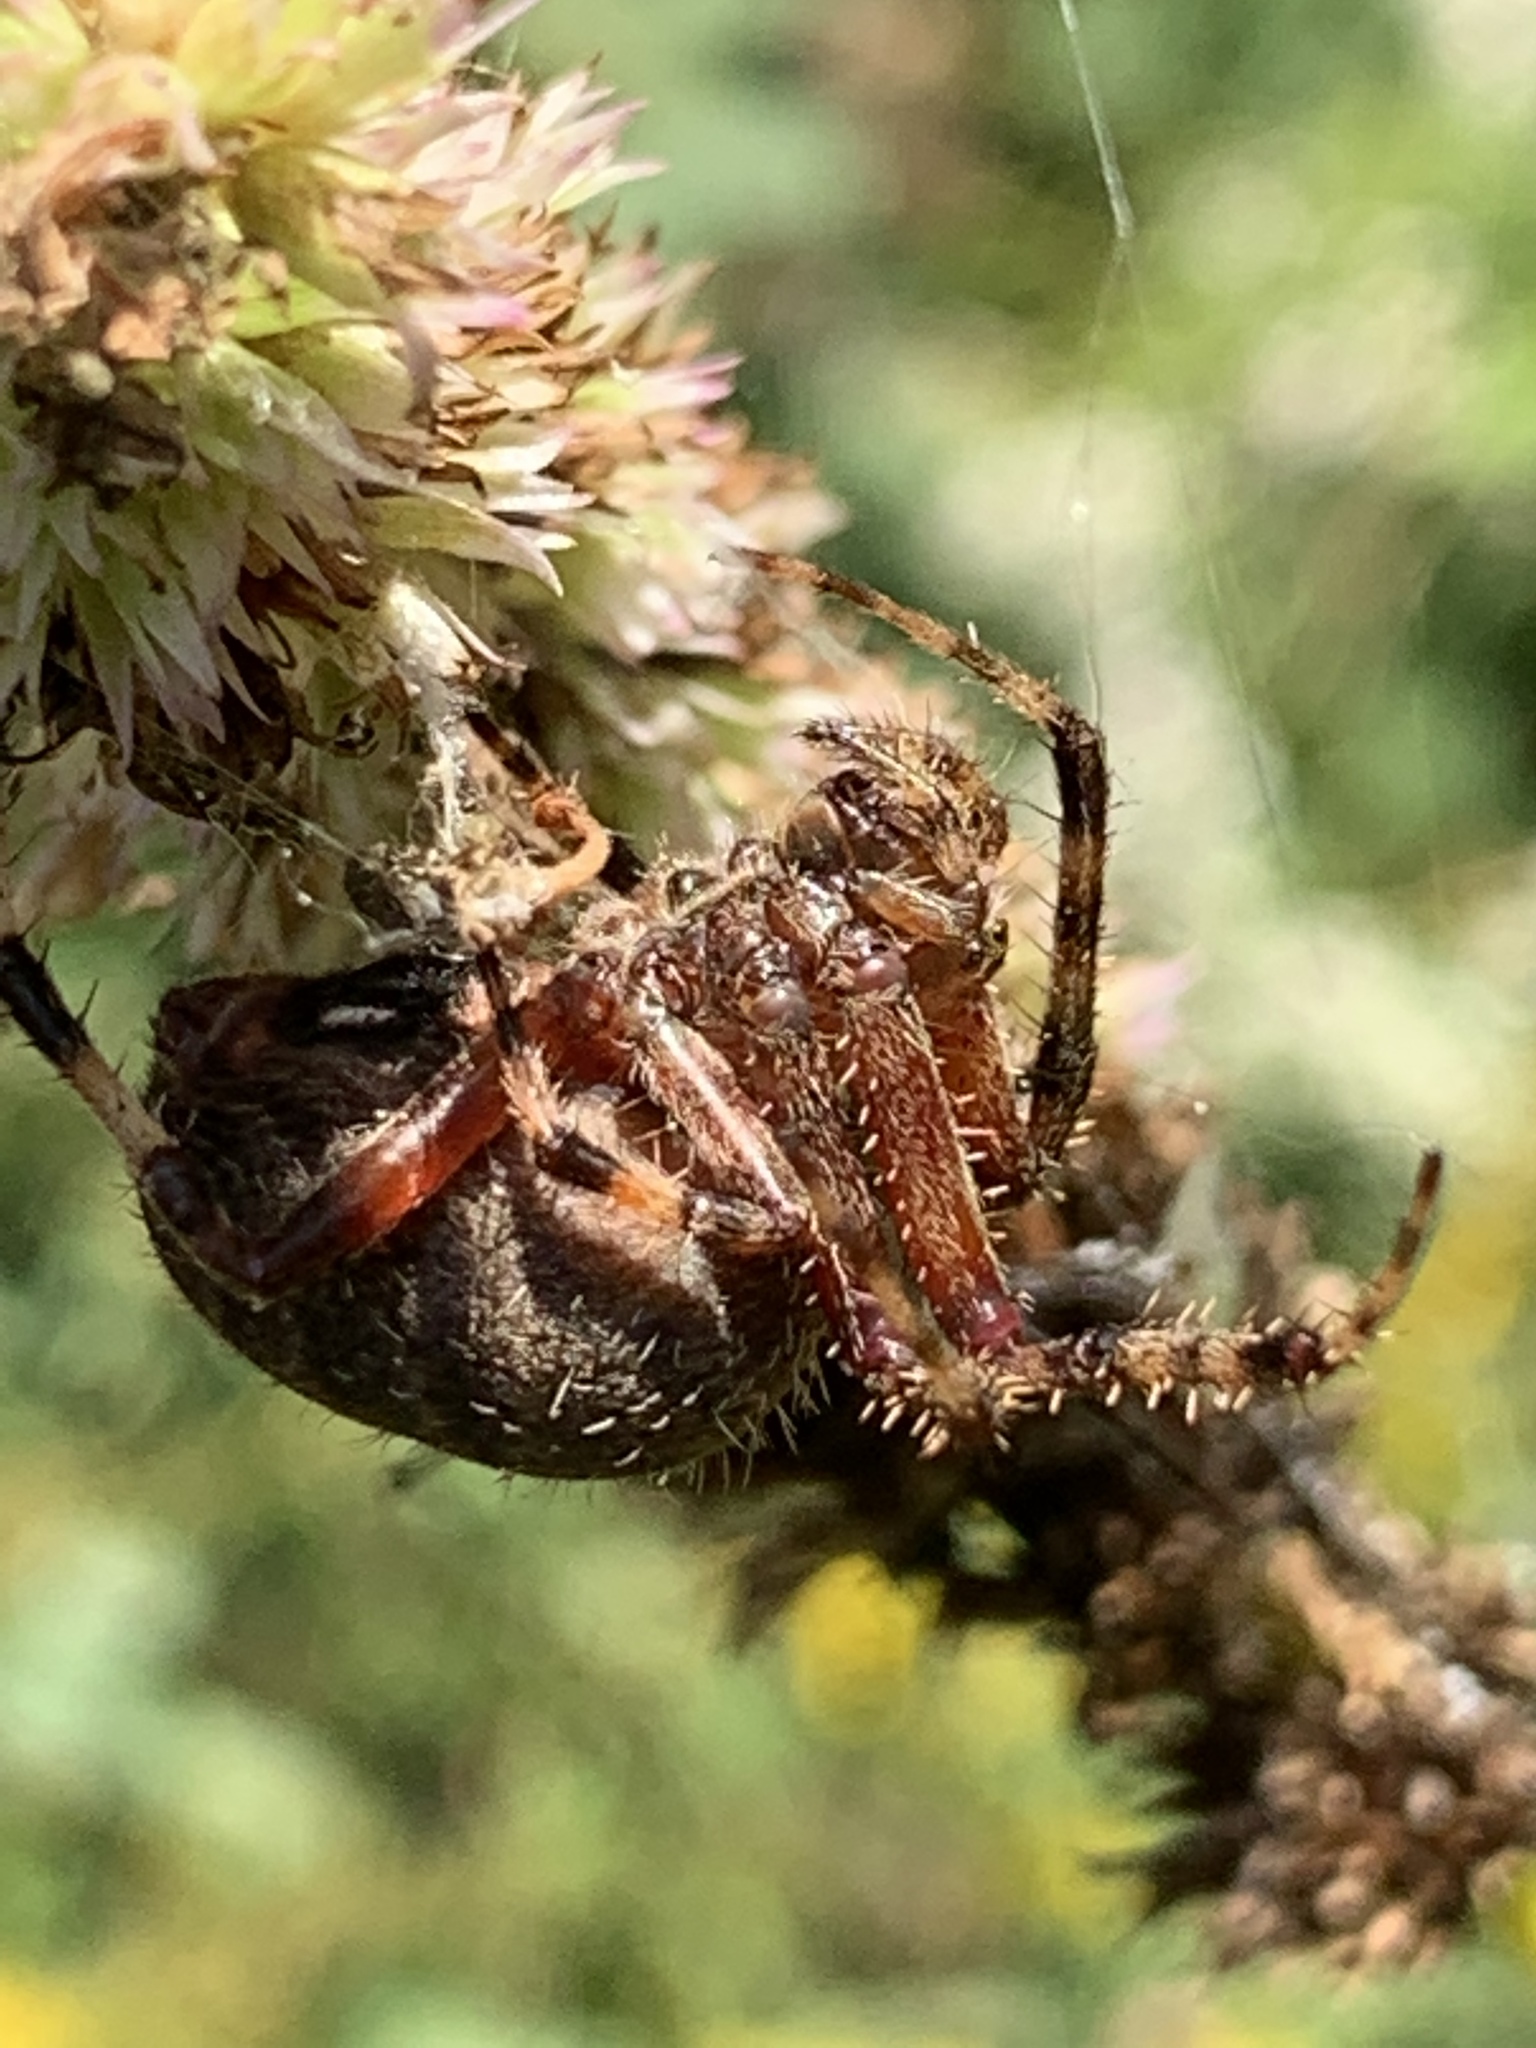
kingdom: Animalia
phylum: Arthropoda
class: Arachnida
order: Araneae
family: Araneidae
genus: Neoscona
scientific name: Neoscona crucifera
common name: Spotted orbweaver
